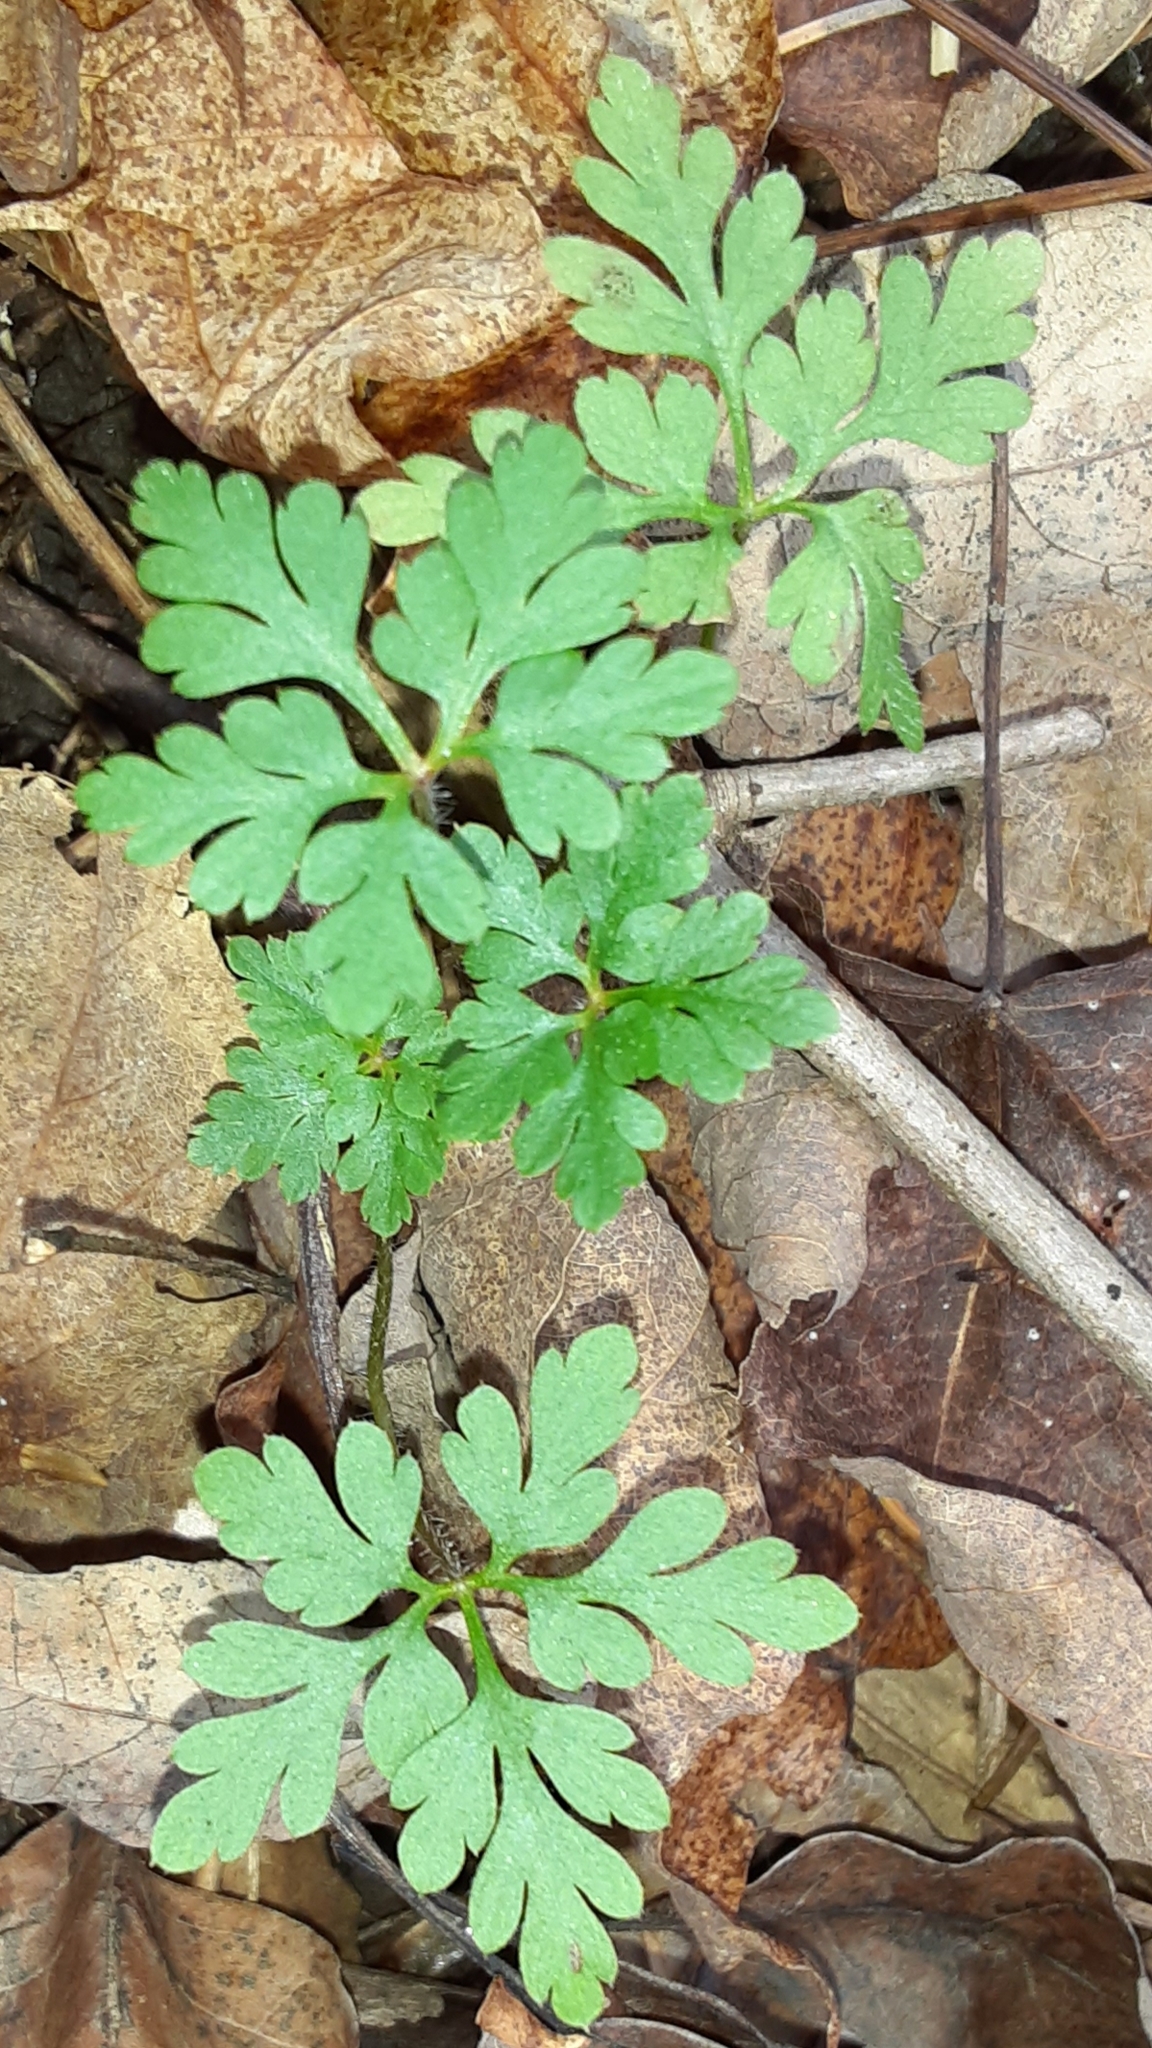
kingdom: Plantae
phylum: Tracheophyta
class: Magnoliopsida
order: Geraniales
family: Geraniaceae
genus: Geranium
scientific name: Geranium robertianum
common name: Herb-robert
